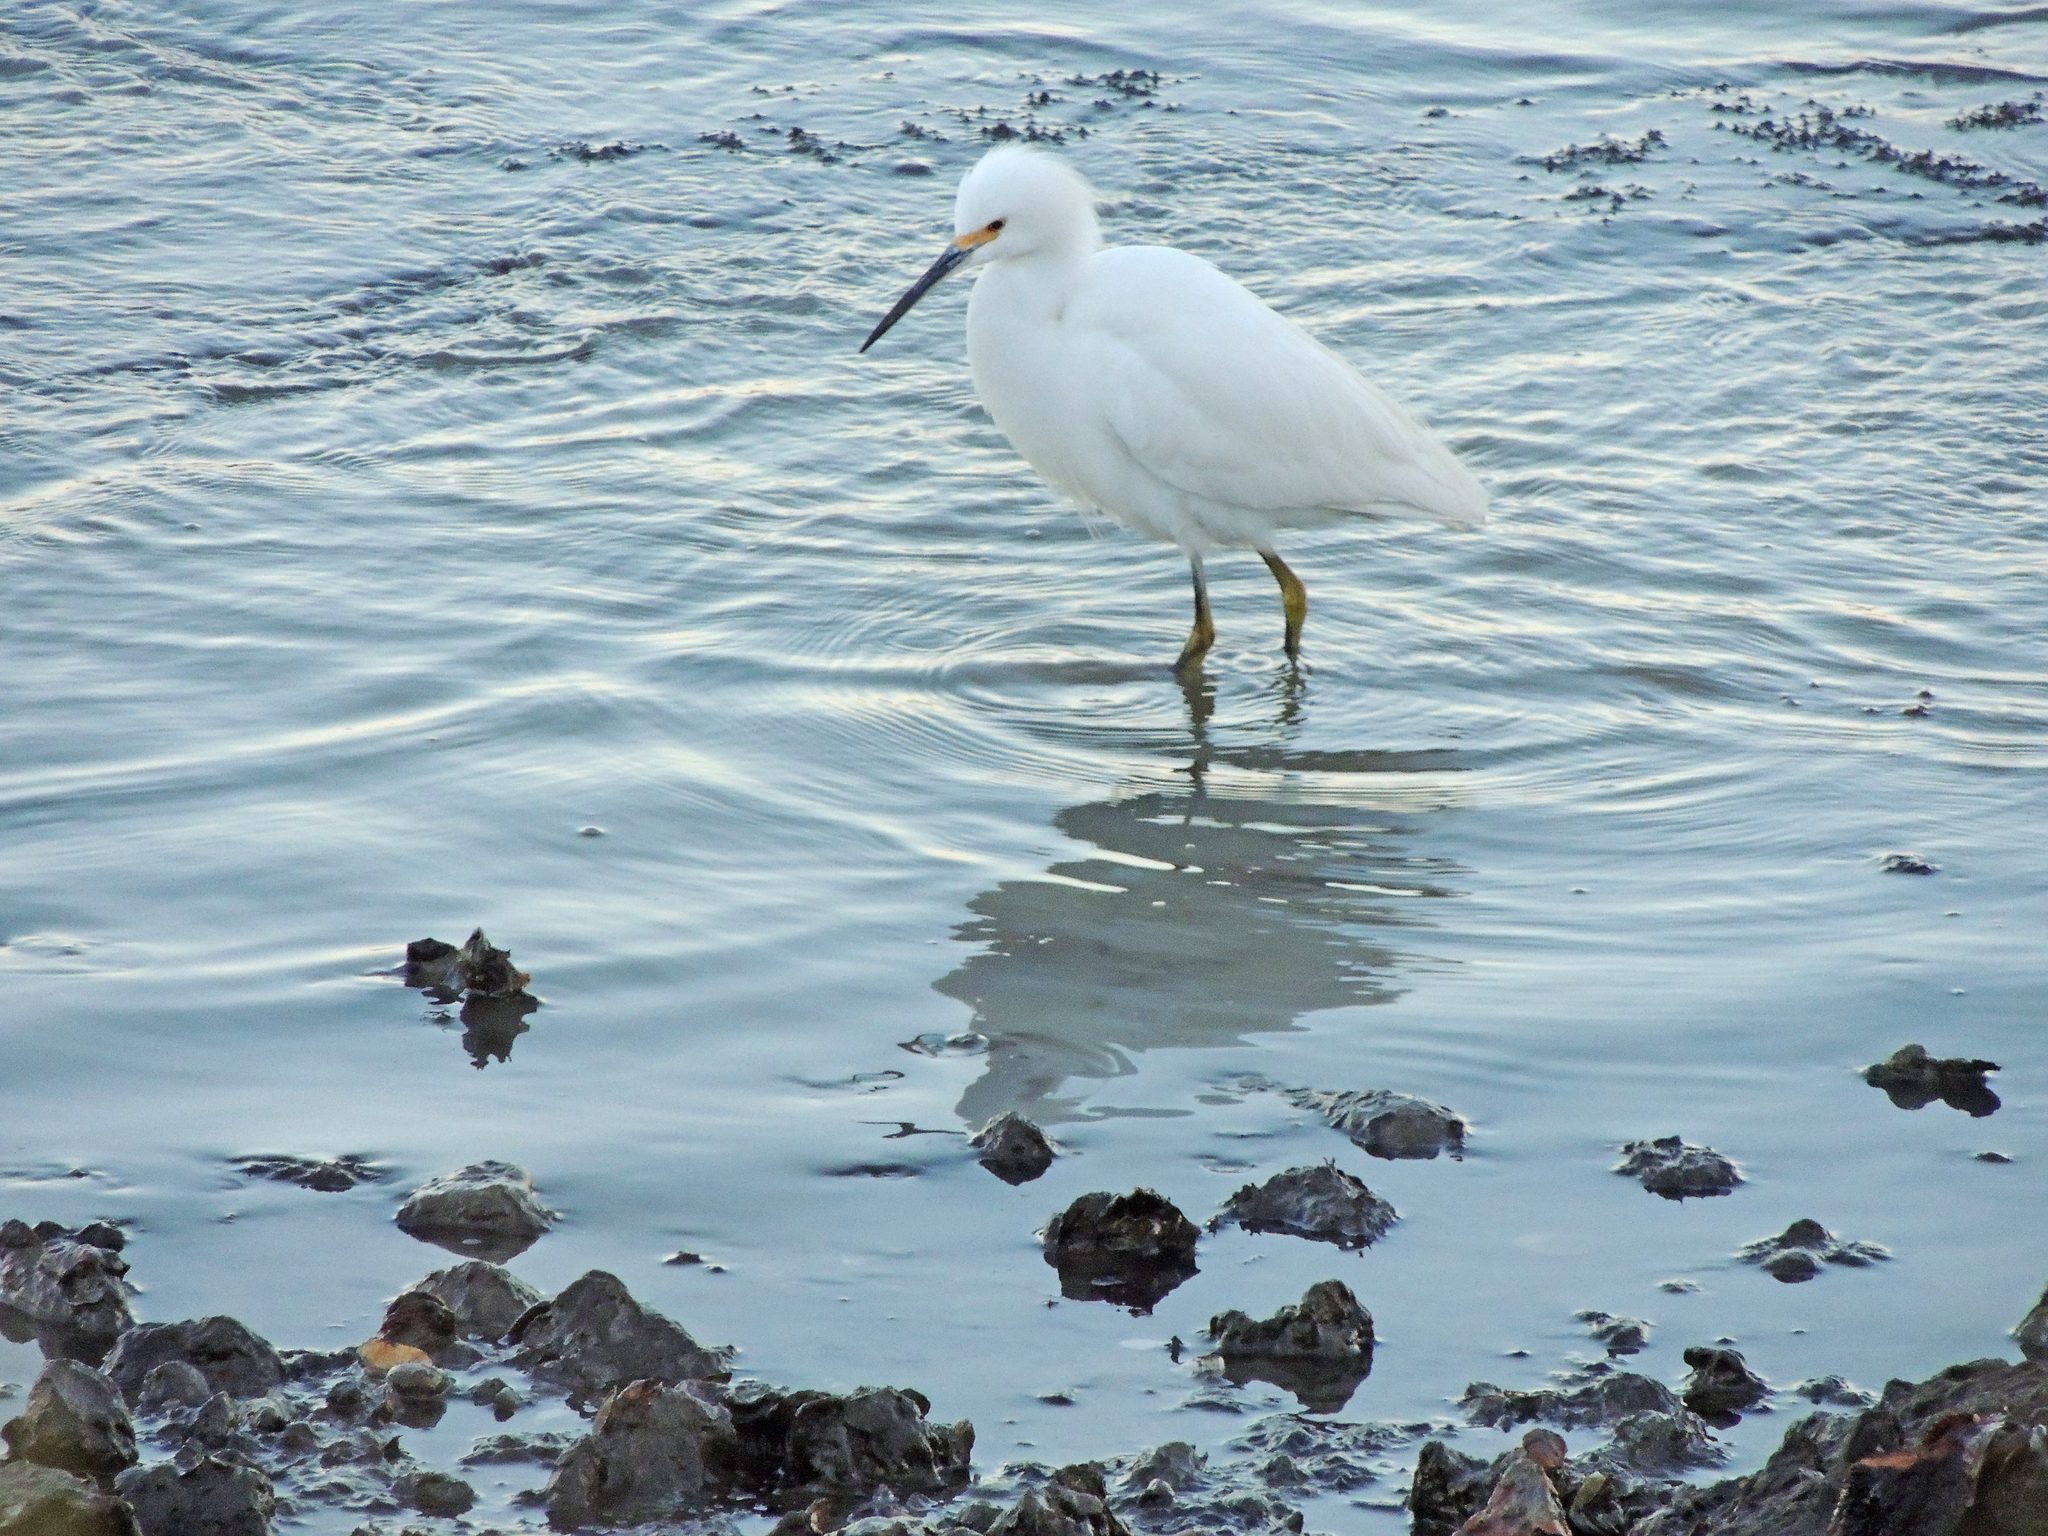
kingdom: Animalia
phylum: Chordata
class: Aves
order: Pelecaniformes
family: Ardeidae
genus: Egretta
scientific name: Egretta thula
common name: Snowy egret
